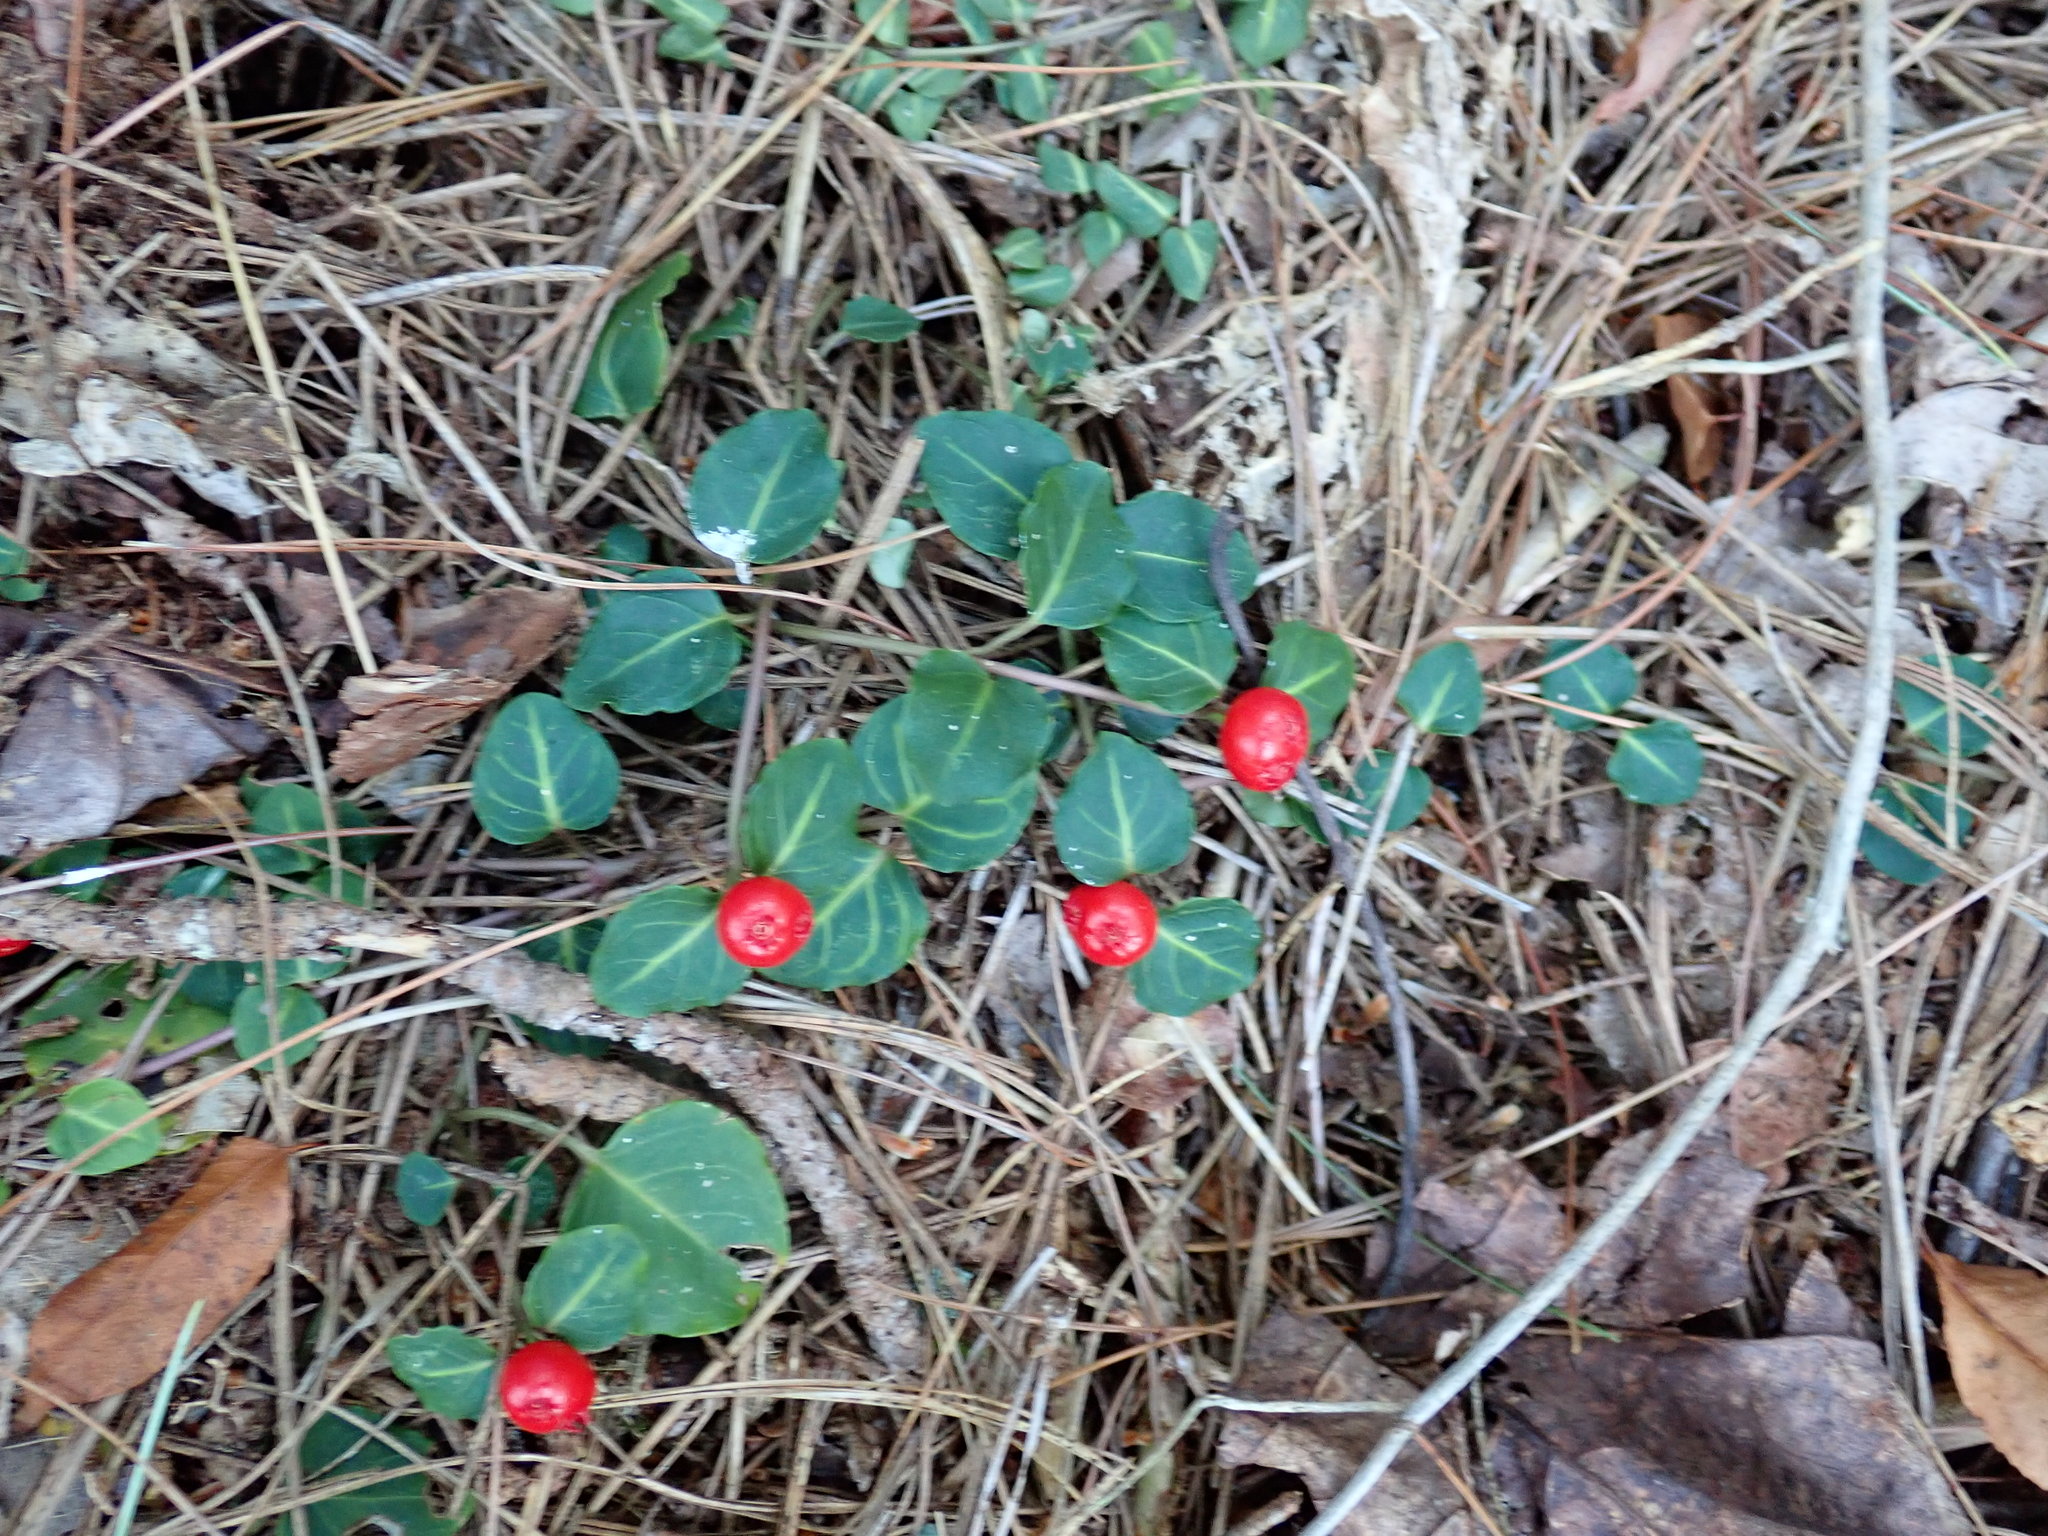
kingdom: Plantae
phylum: Tracheophyta
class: Magnoliopsida
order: Gentianales
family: Rubiaceae
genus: Mitchella
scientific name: Mitchella repens
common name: Partridge-berry
